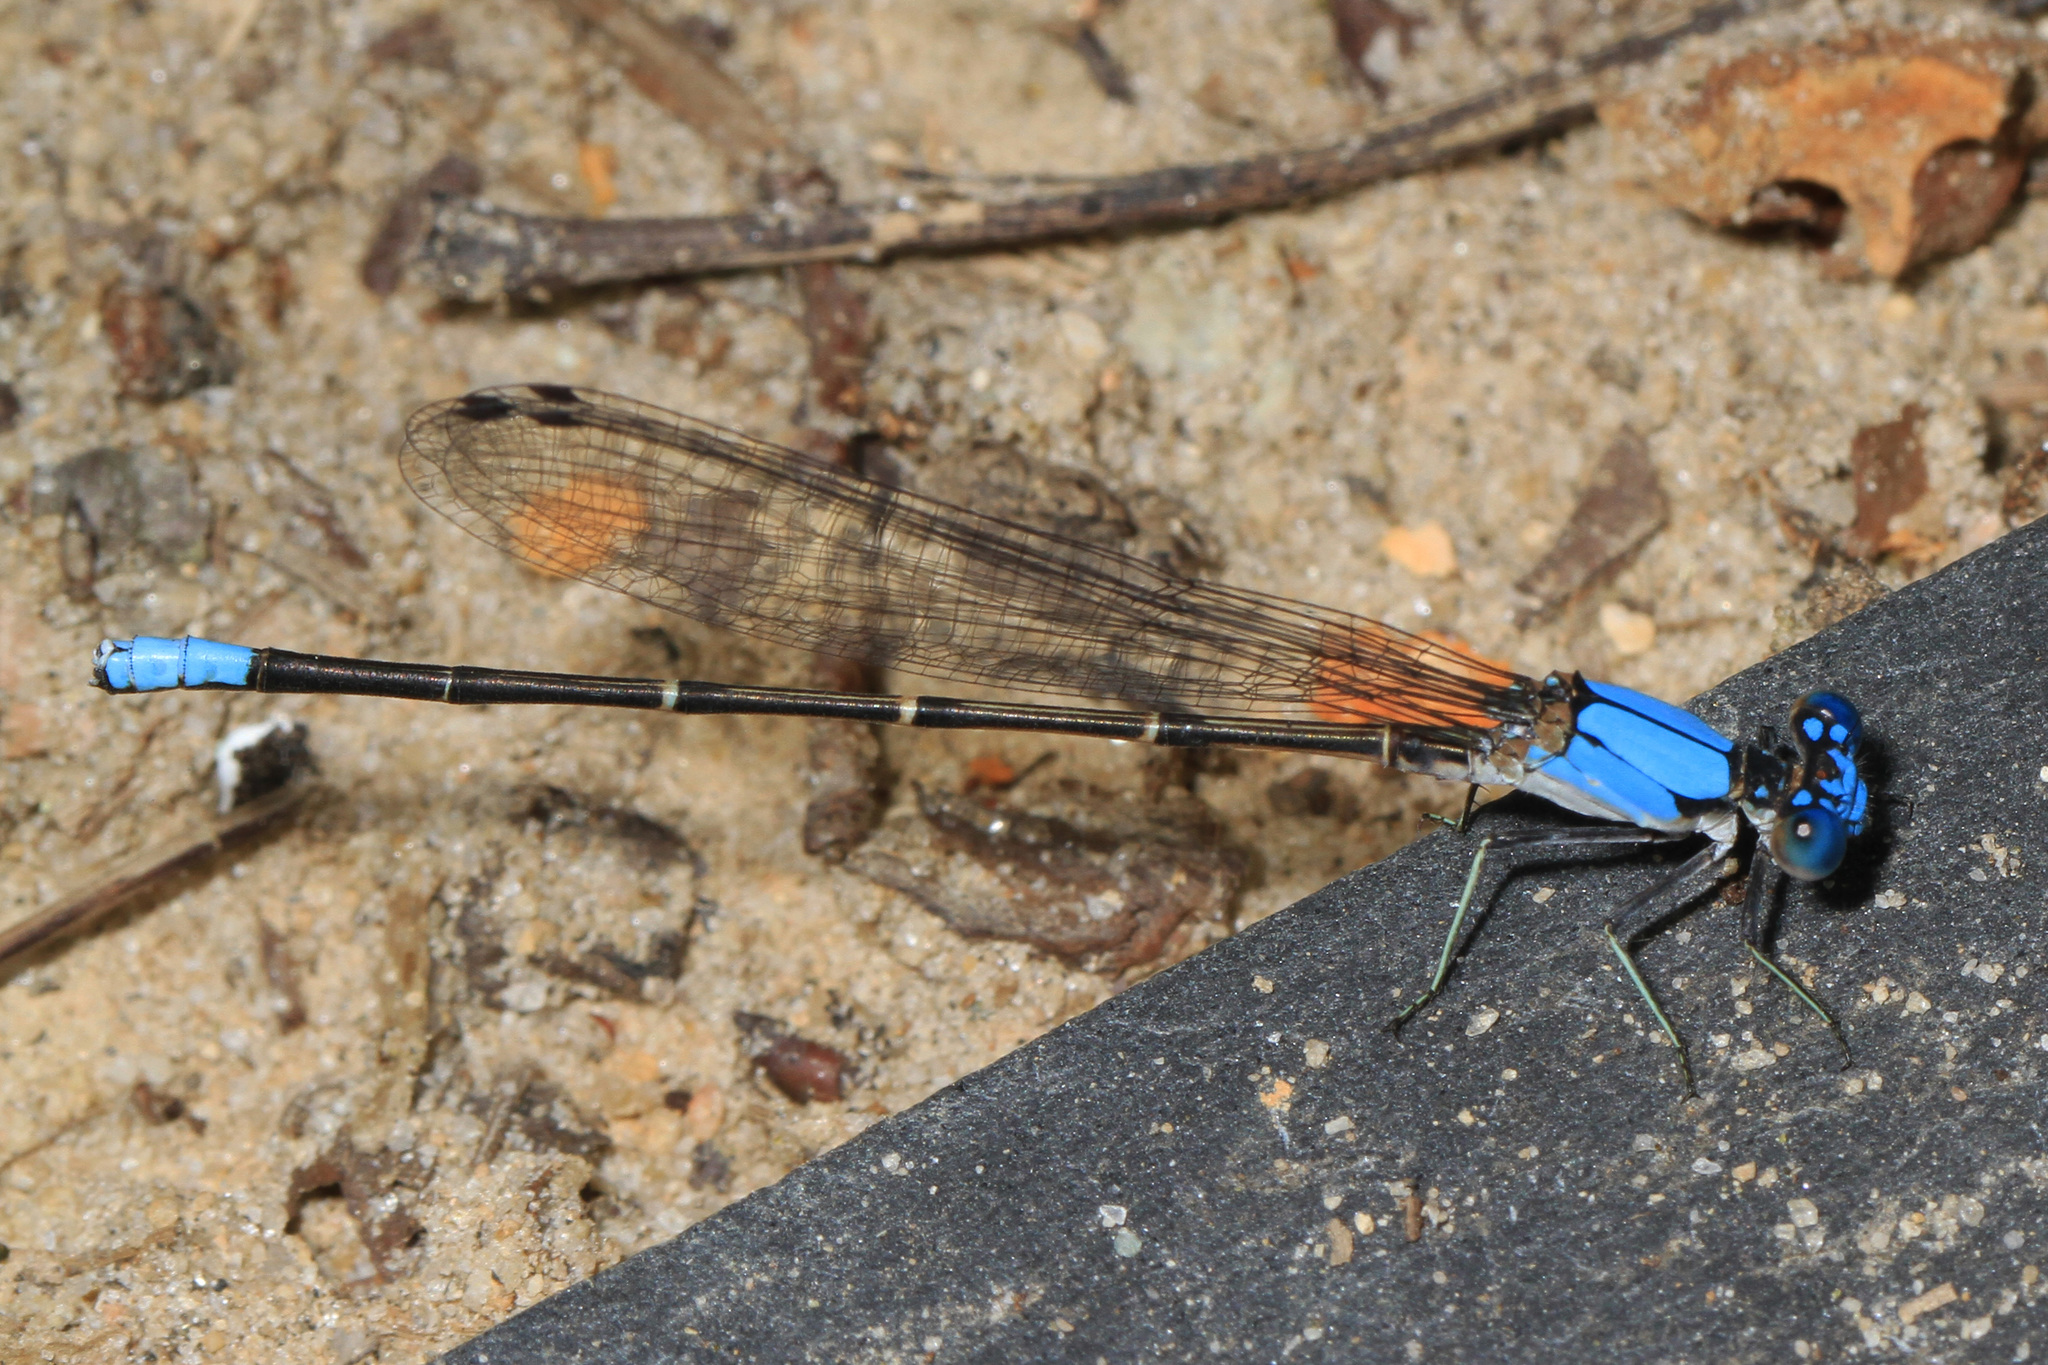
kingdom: Animalia
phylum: Arthropoda
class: Insecta
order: Odonata
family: Coenagrionidae
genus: Argia
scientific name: Argia apicalis
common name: Blue-fronted dancer
